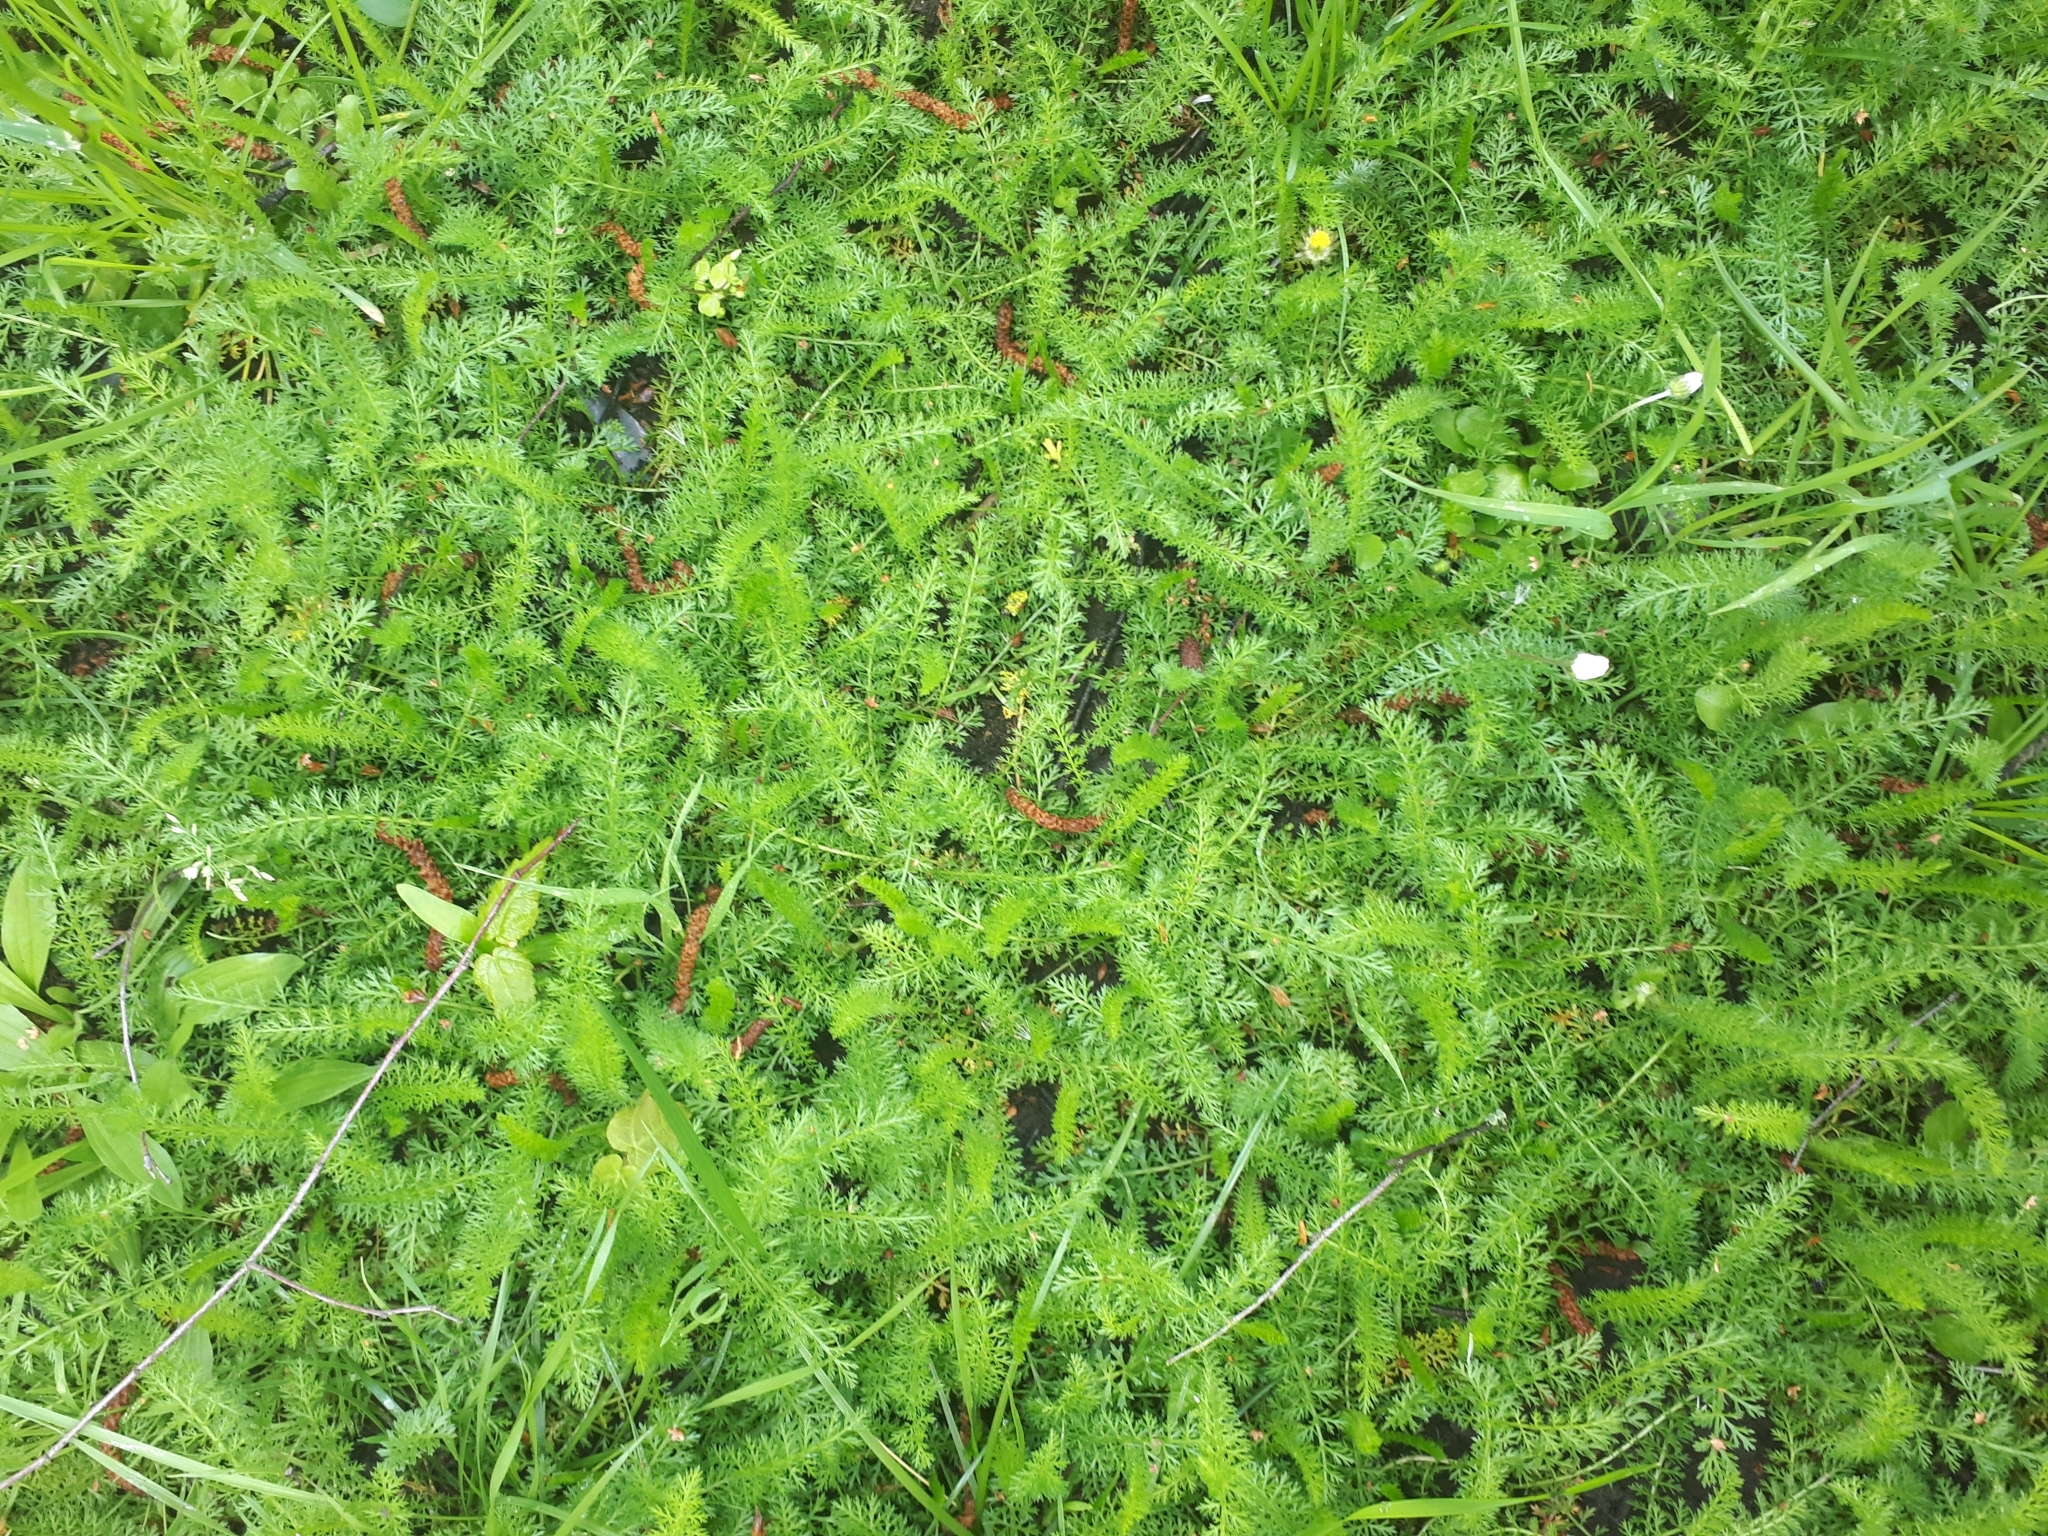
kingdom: Plantae
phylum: Tracheophyta
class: Magnoliopsida
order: Asterales
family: Asteraceae
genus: Achillea
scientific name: Achillea millefolium
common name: Yarrow
